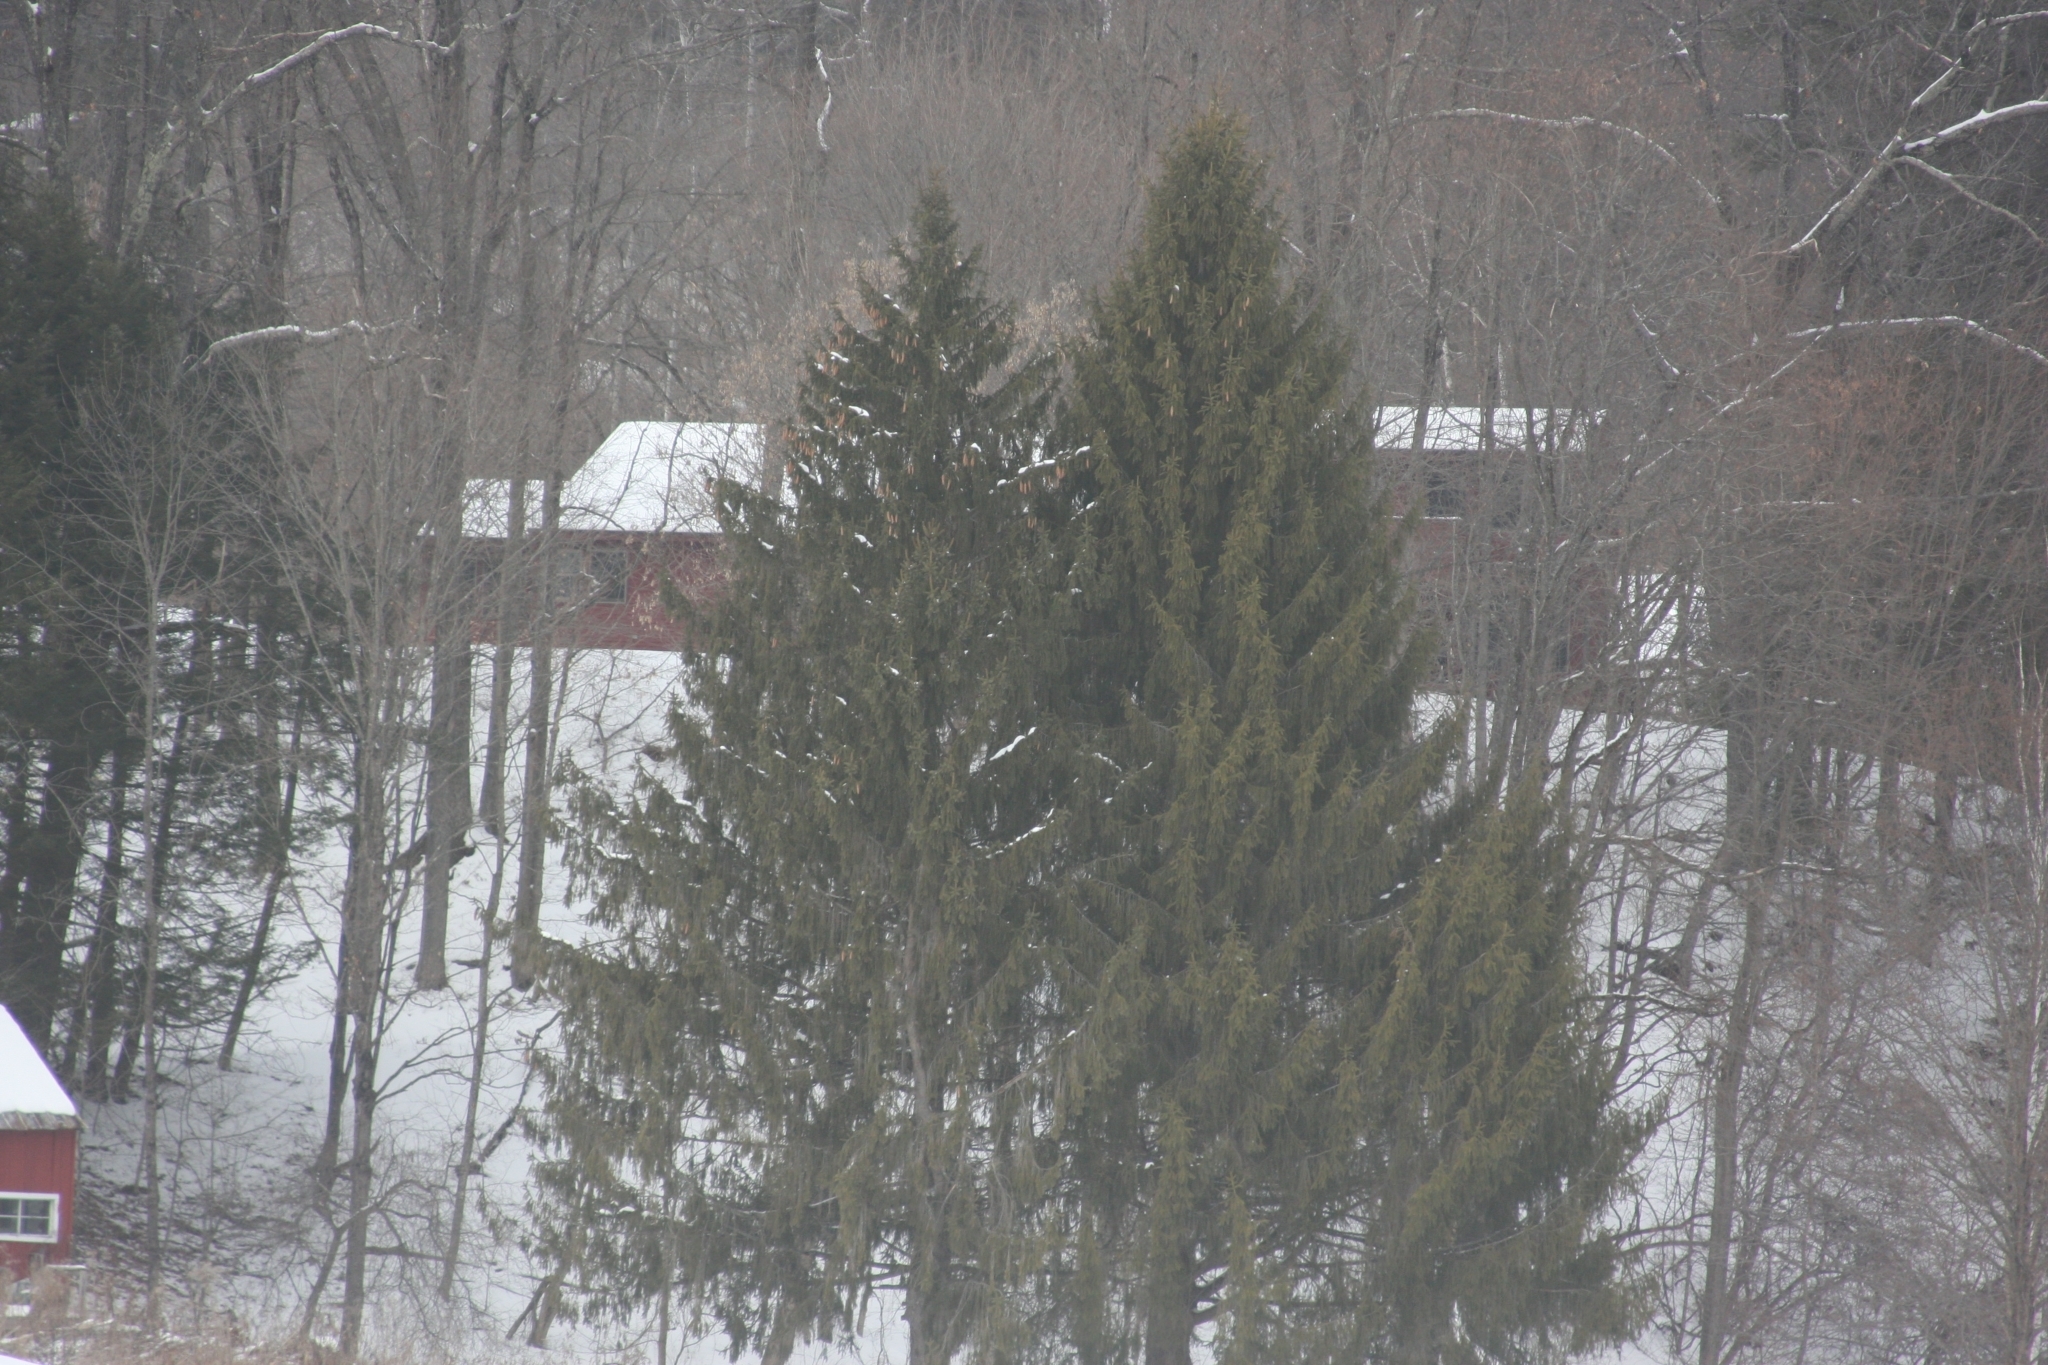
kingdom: Plantae
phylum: Tracheophyta
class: Pinopsida
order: Pinales
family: Pinaceae
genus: Picea
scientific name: Picea abies
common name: Norway spruce
